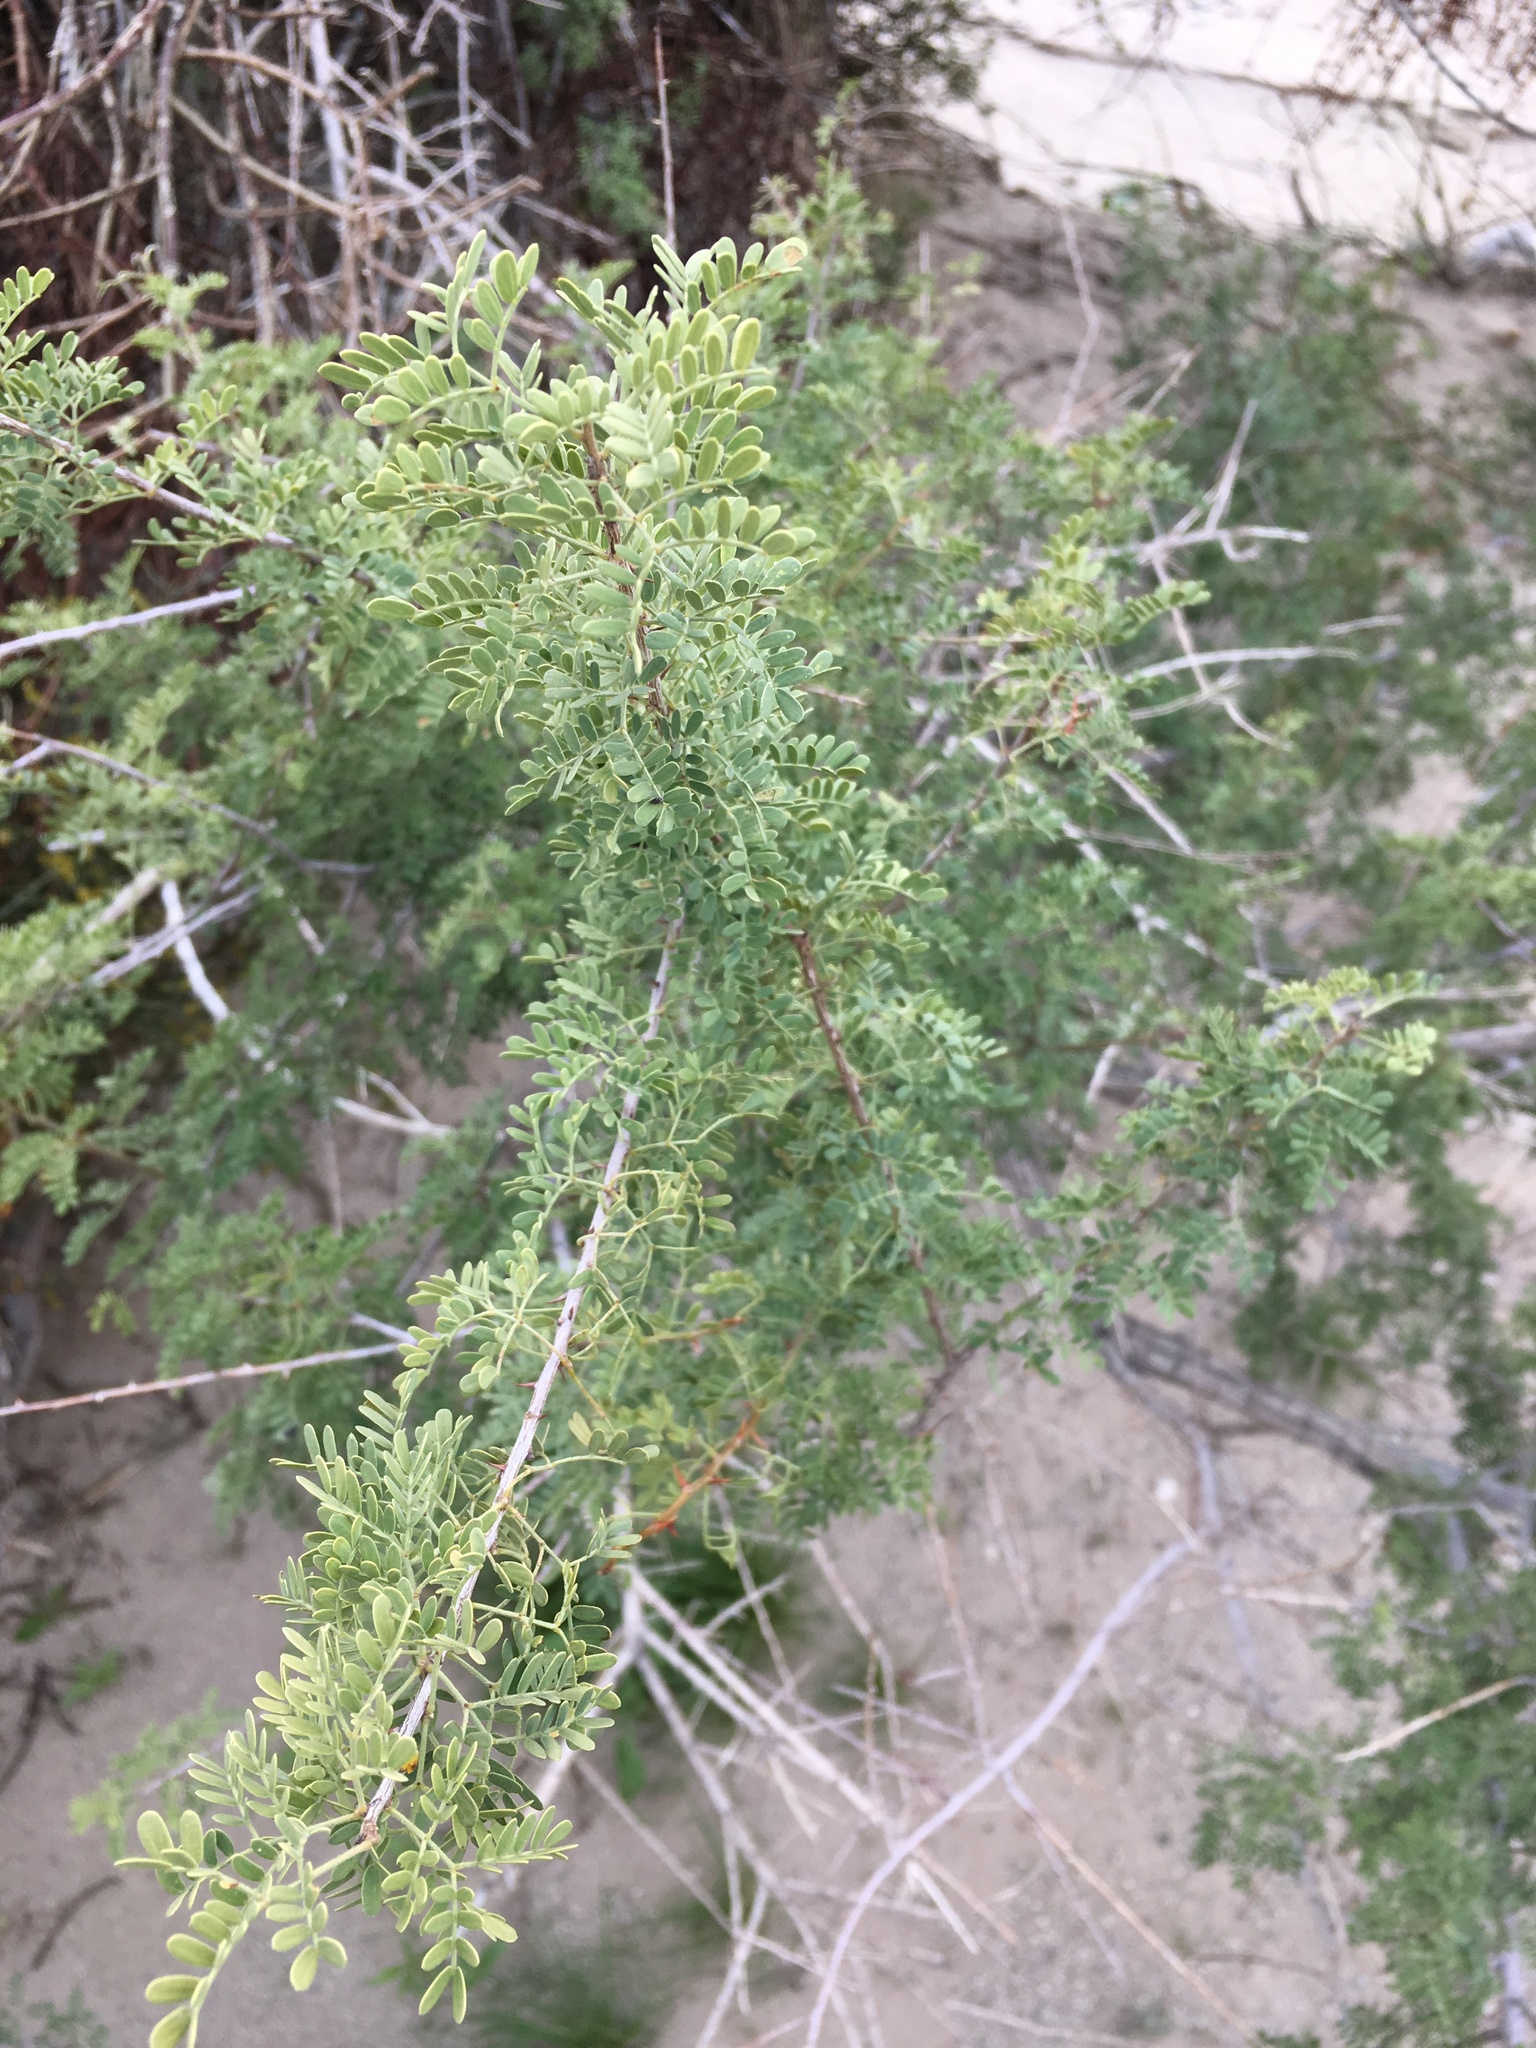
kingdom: Plantae
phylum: Tracheophyta
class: Magnoliopsida
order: Fabales
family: Fabaceae
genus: Senegalia
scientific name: Senegalia greggii
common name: Texas-mimosa
